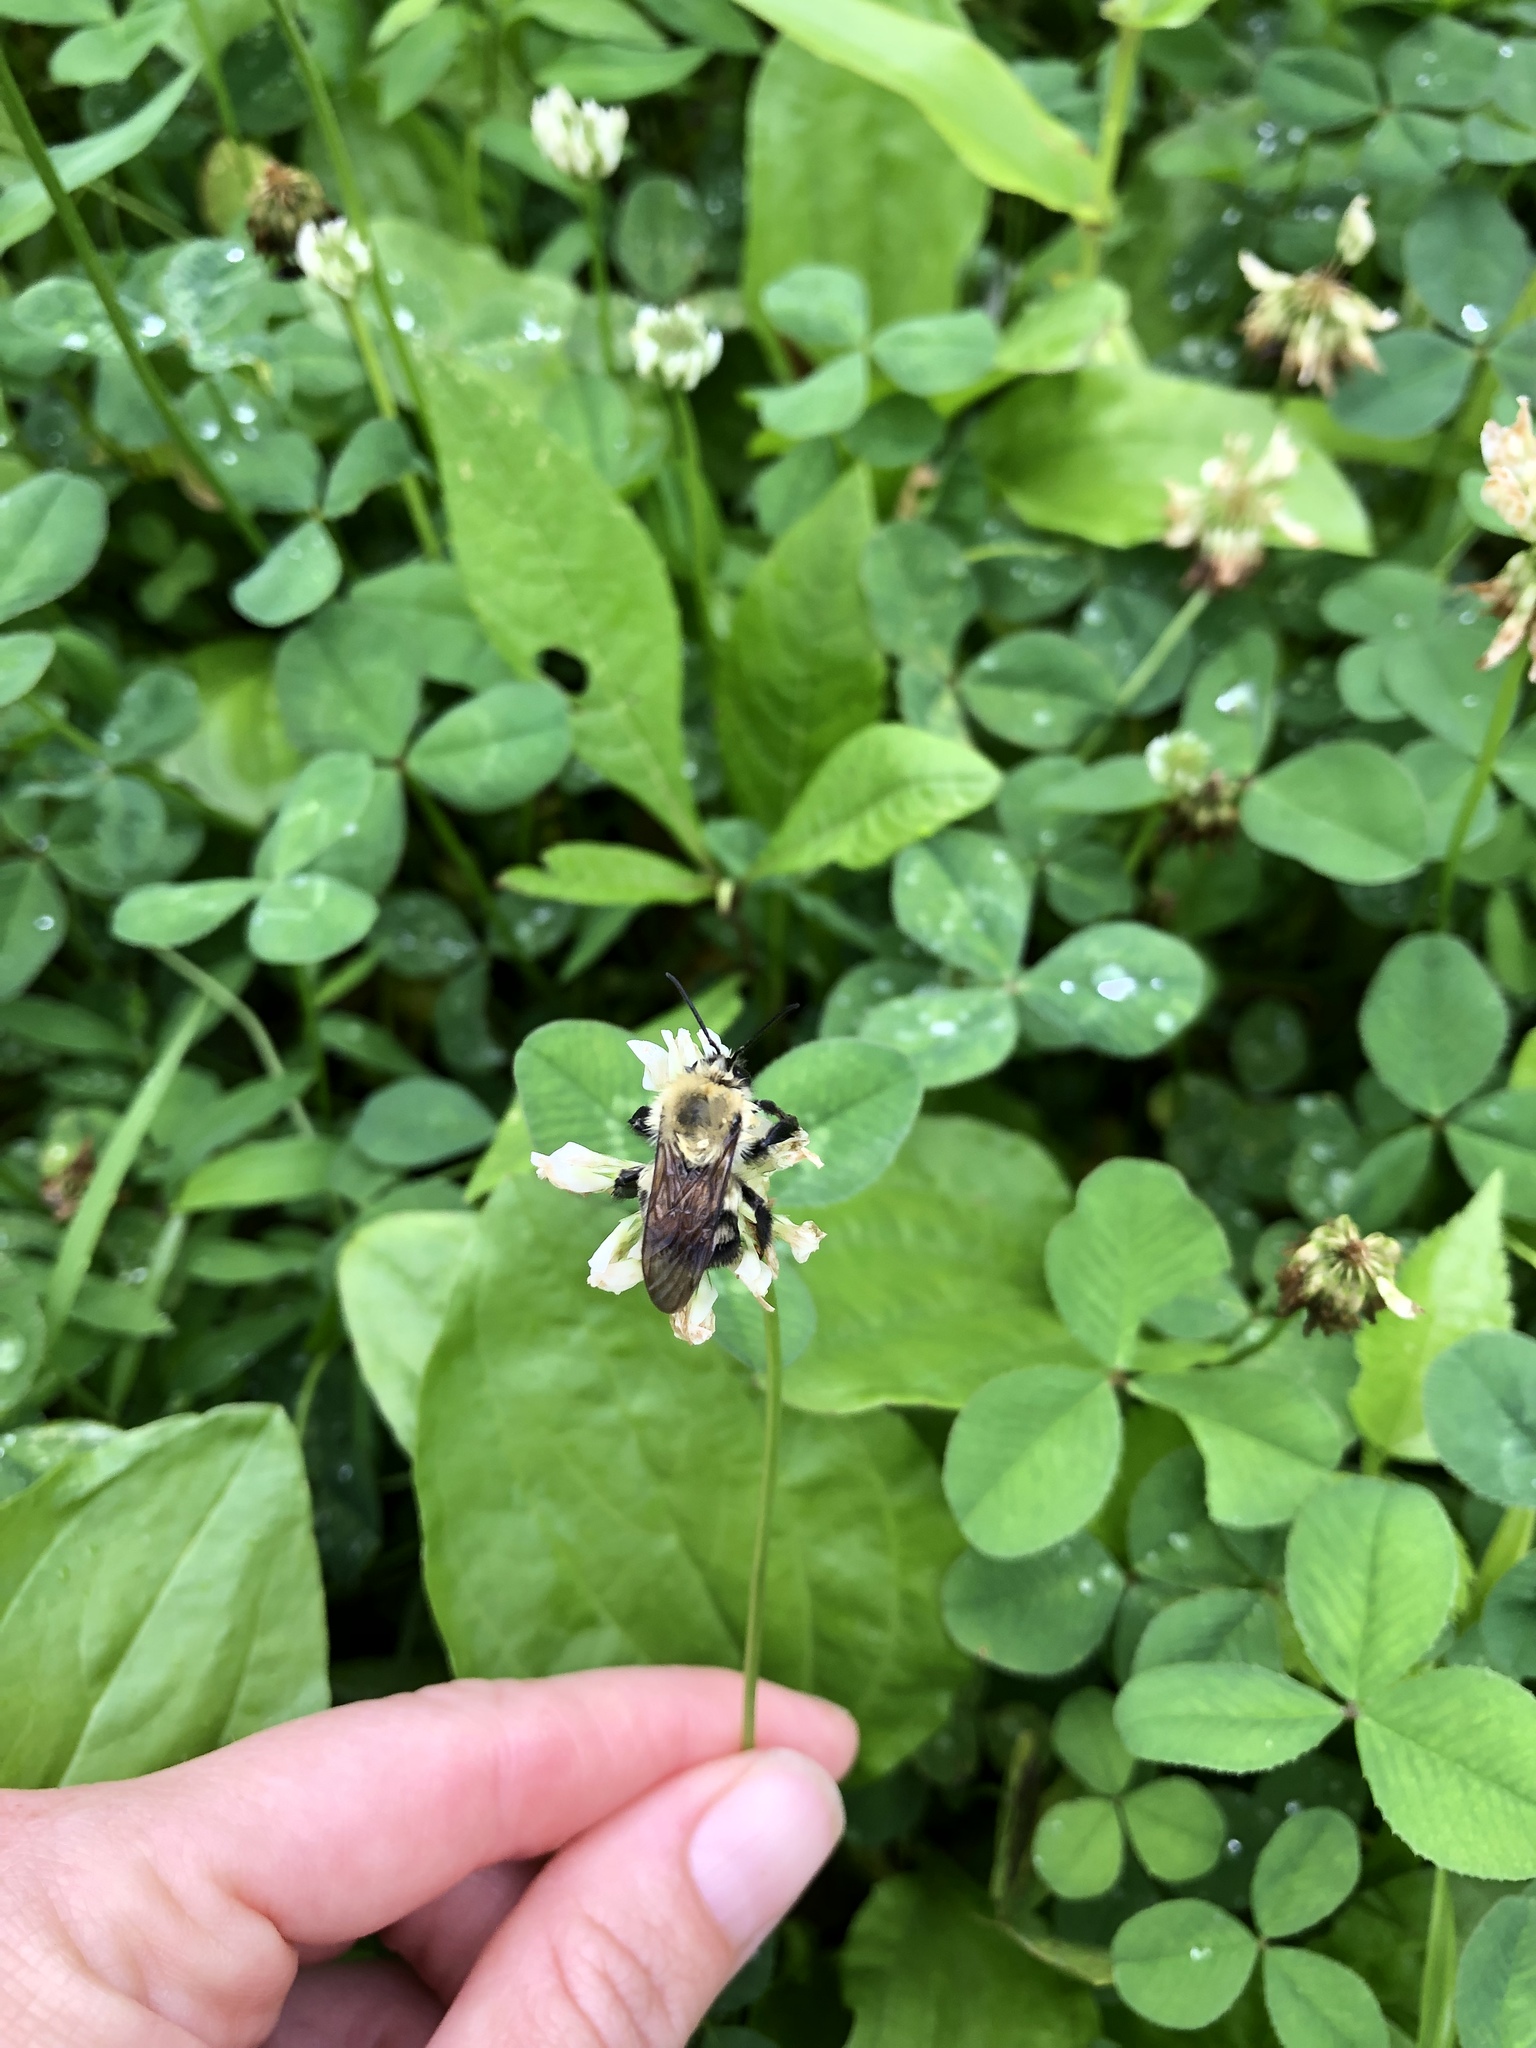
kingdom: Animalia
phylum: Arthropoda
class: Insecta
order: Hymenoptera
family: Apidae
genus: Bombus
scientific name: Bombus griseocollis
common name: Brown-belted bumble bee
